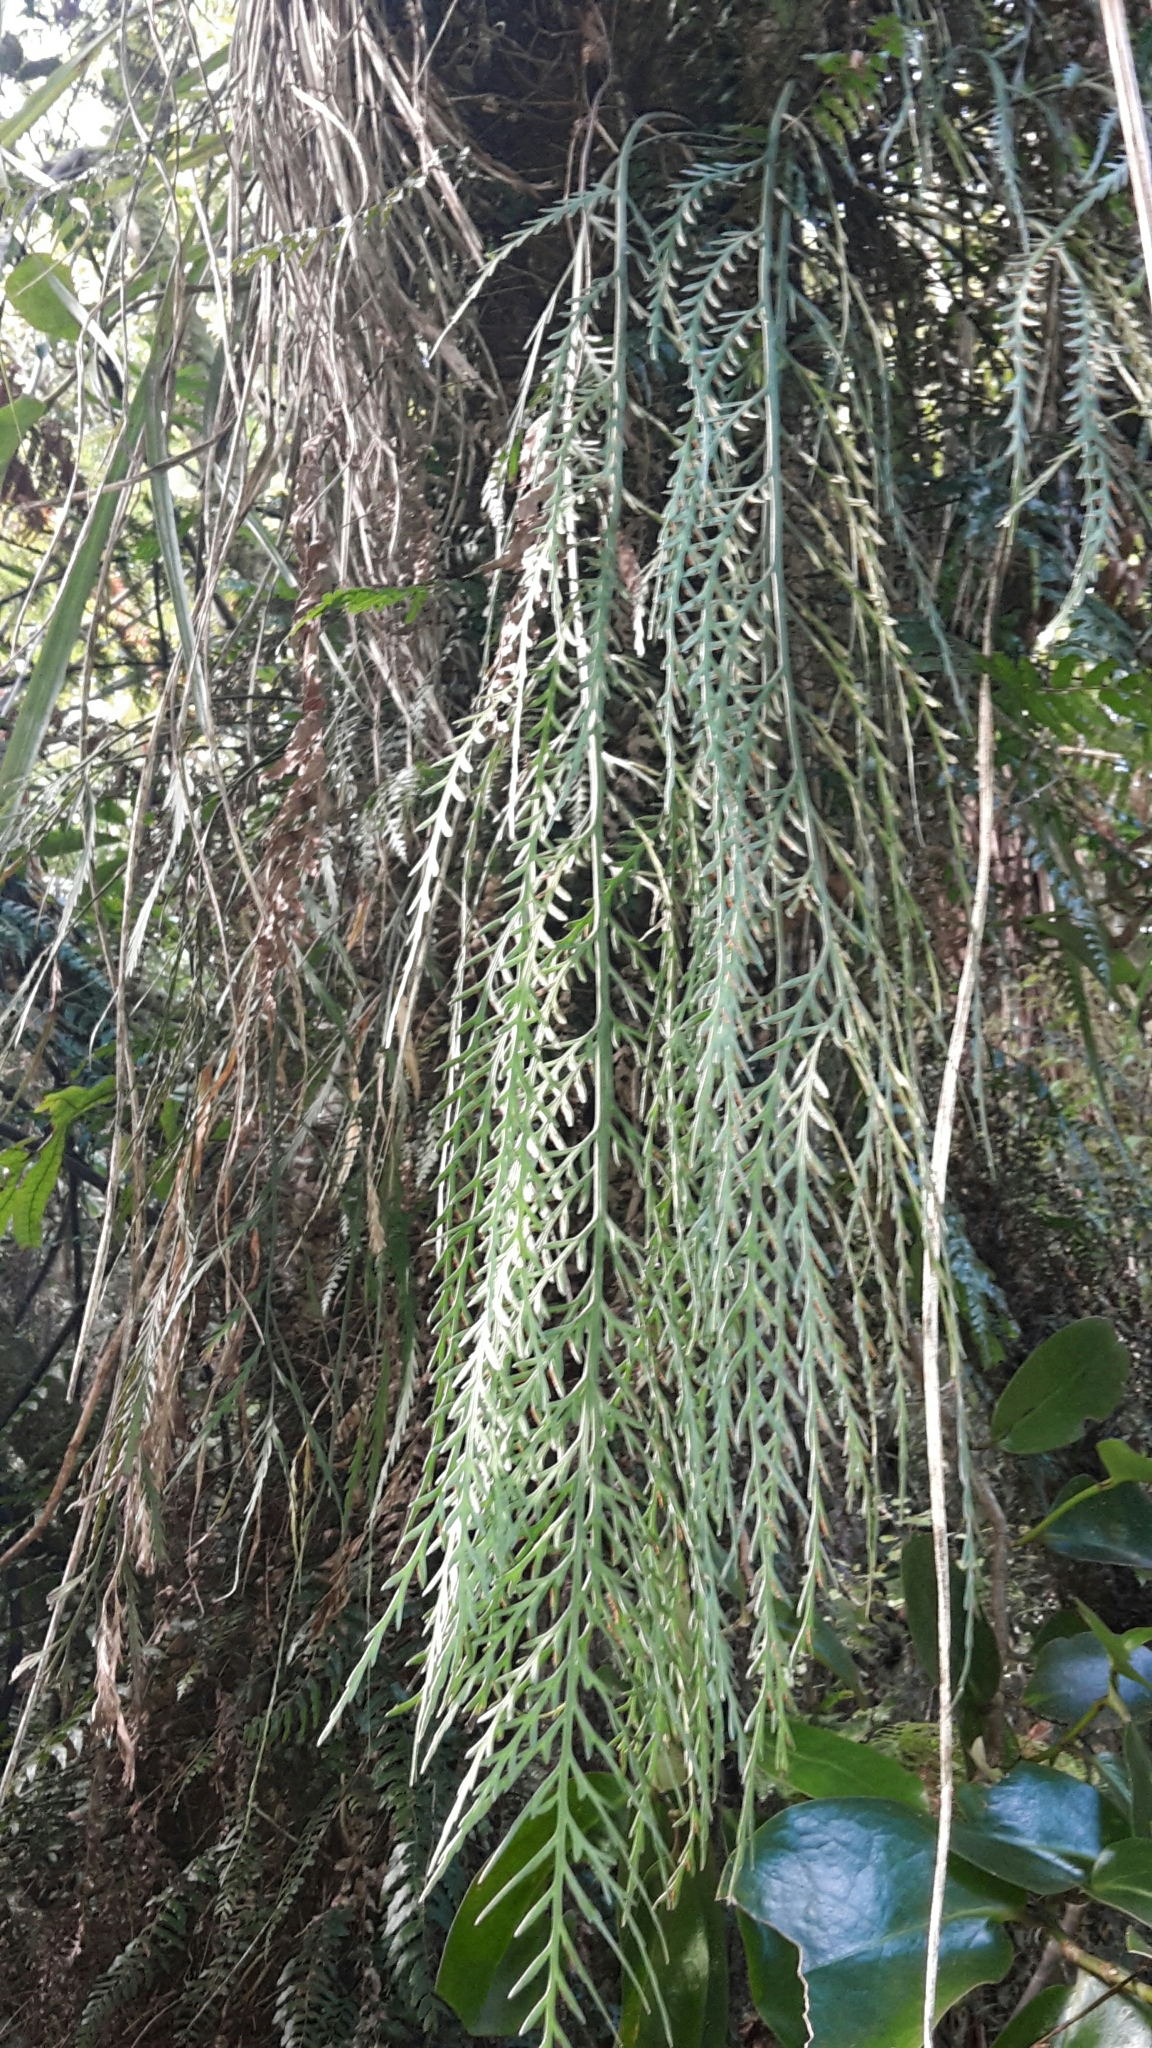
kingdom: Plantae
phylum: Tracheophyta
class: Polypodiopsida
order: Polypodiales
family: Aspleniaceae
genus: Asplenium
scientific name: Asplenium flaccidum
